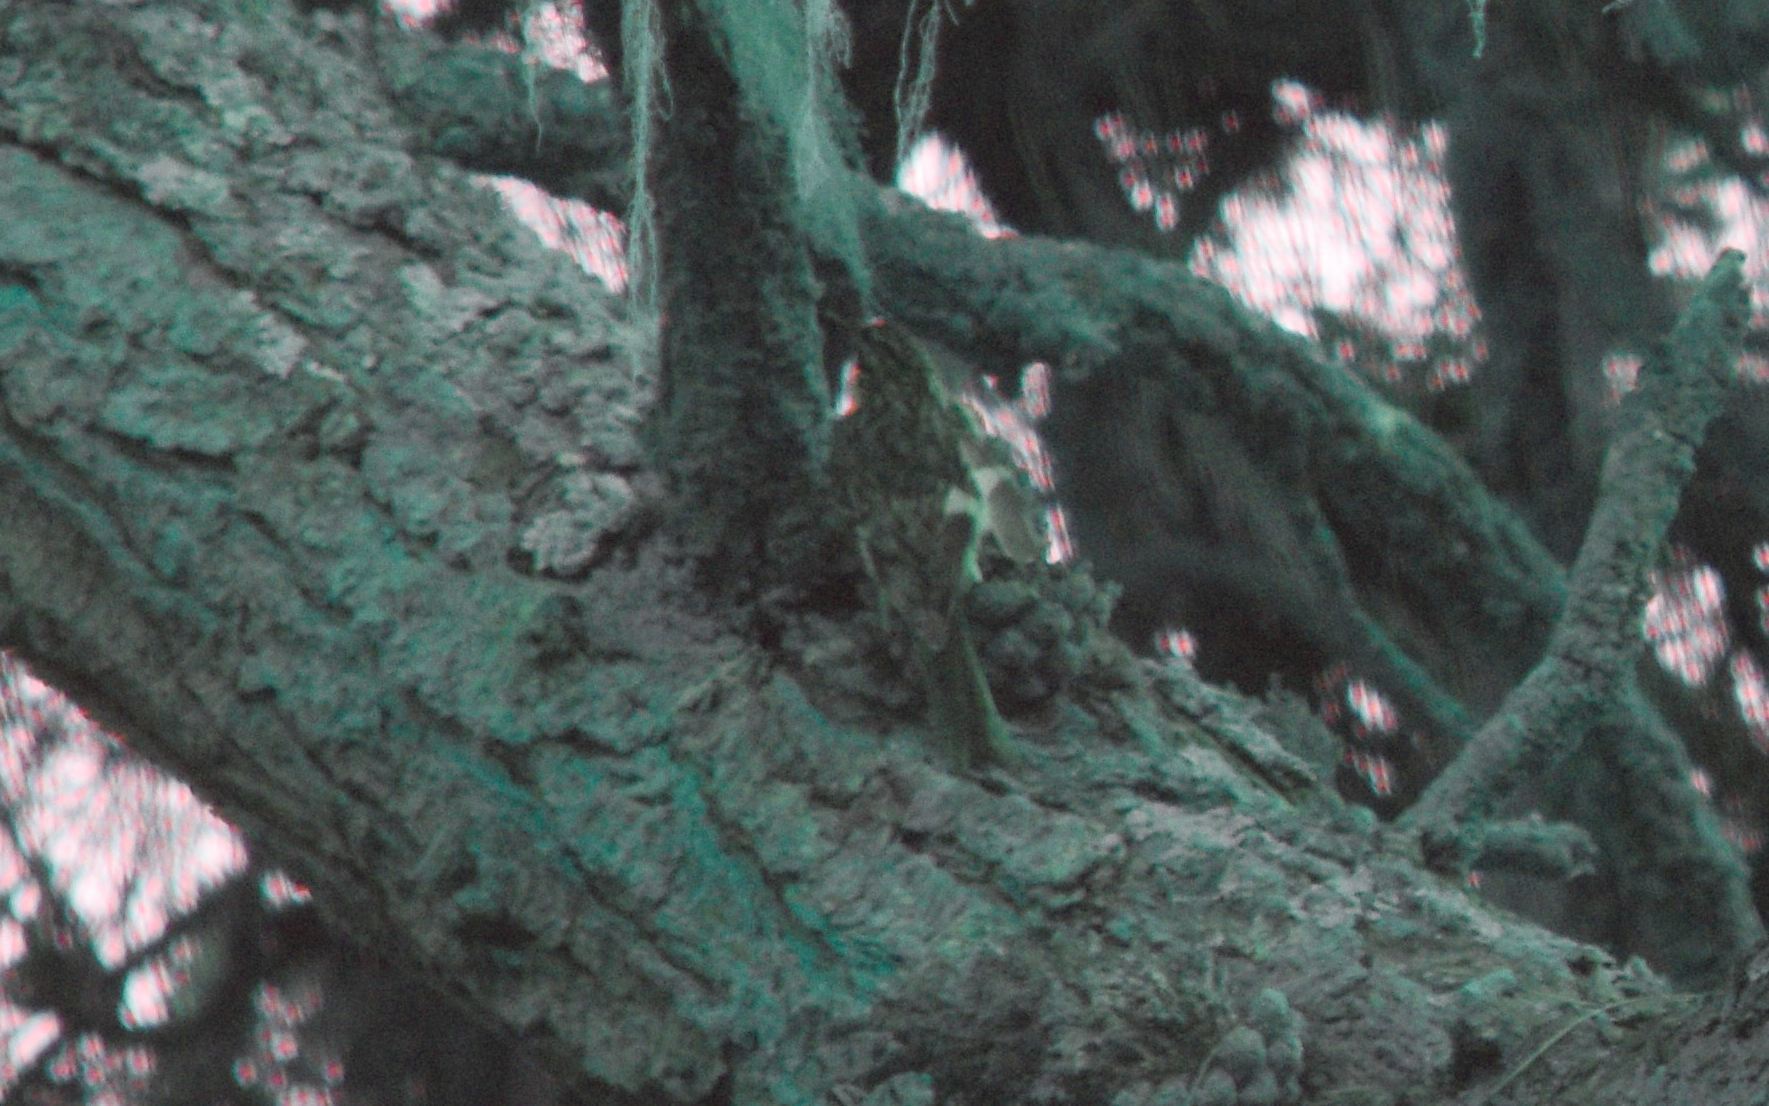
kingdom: Animalia
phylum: Chordata
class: Aves
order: Passeriformes
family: Certhiidae
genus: Certhia
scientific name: Certhia americana
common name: Brown creeper
